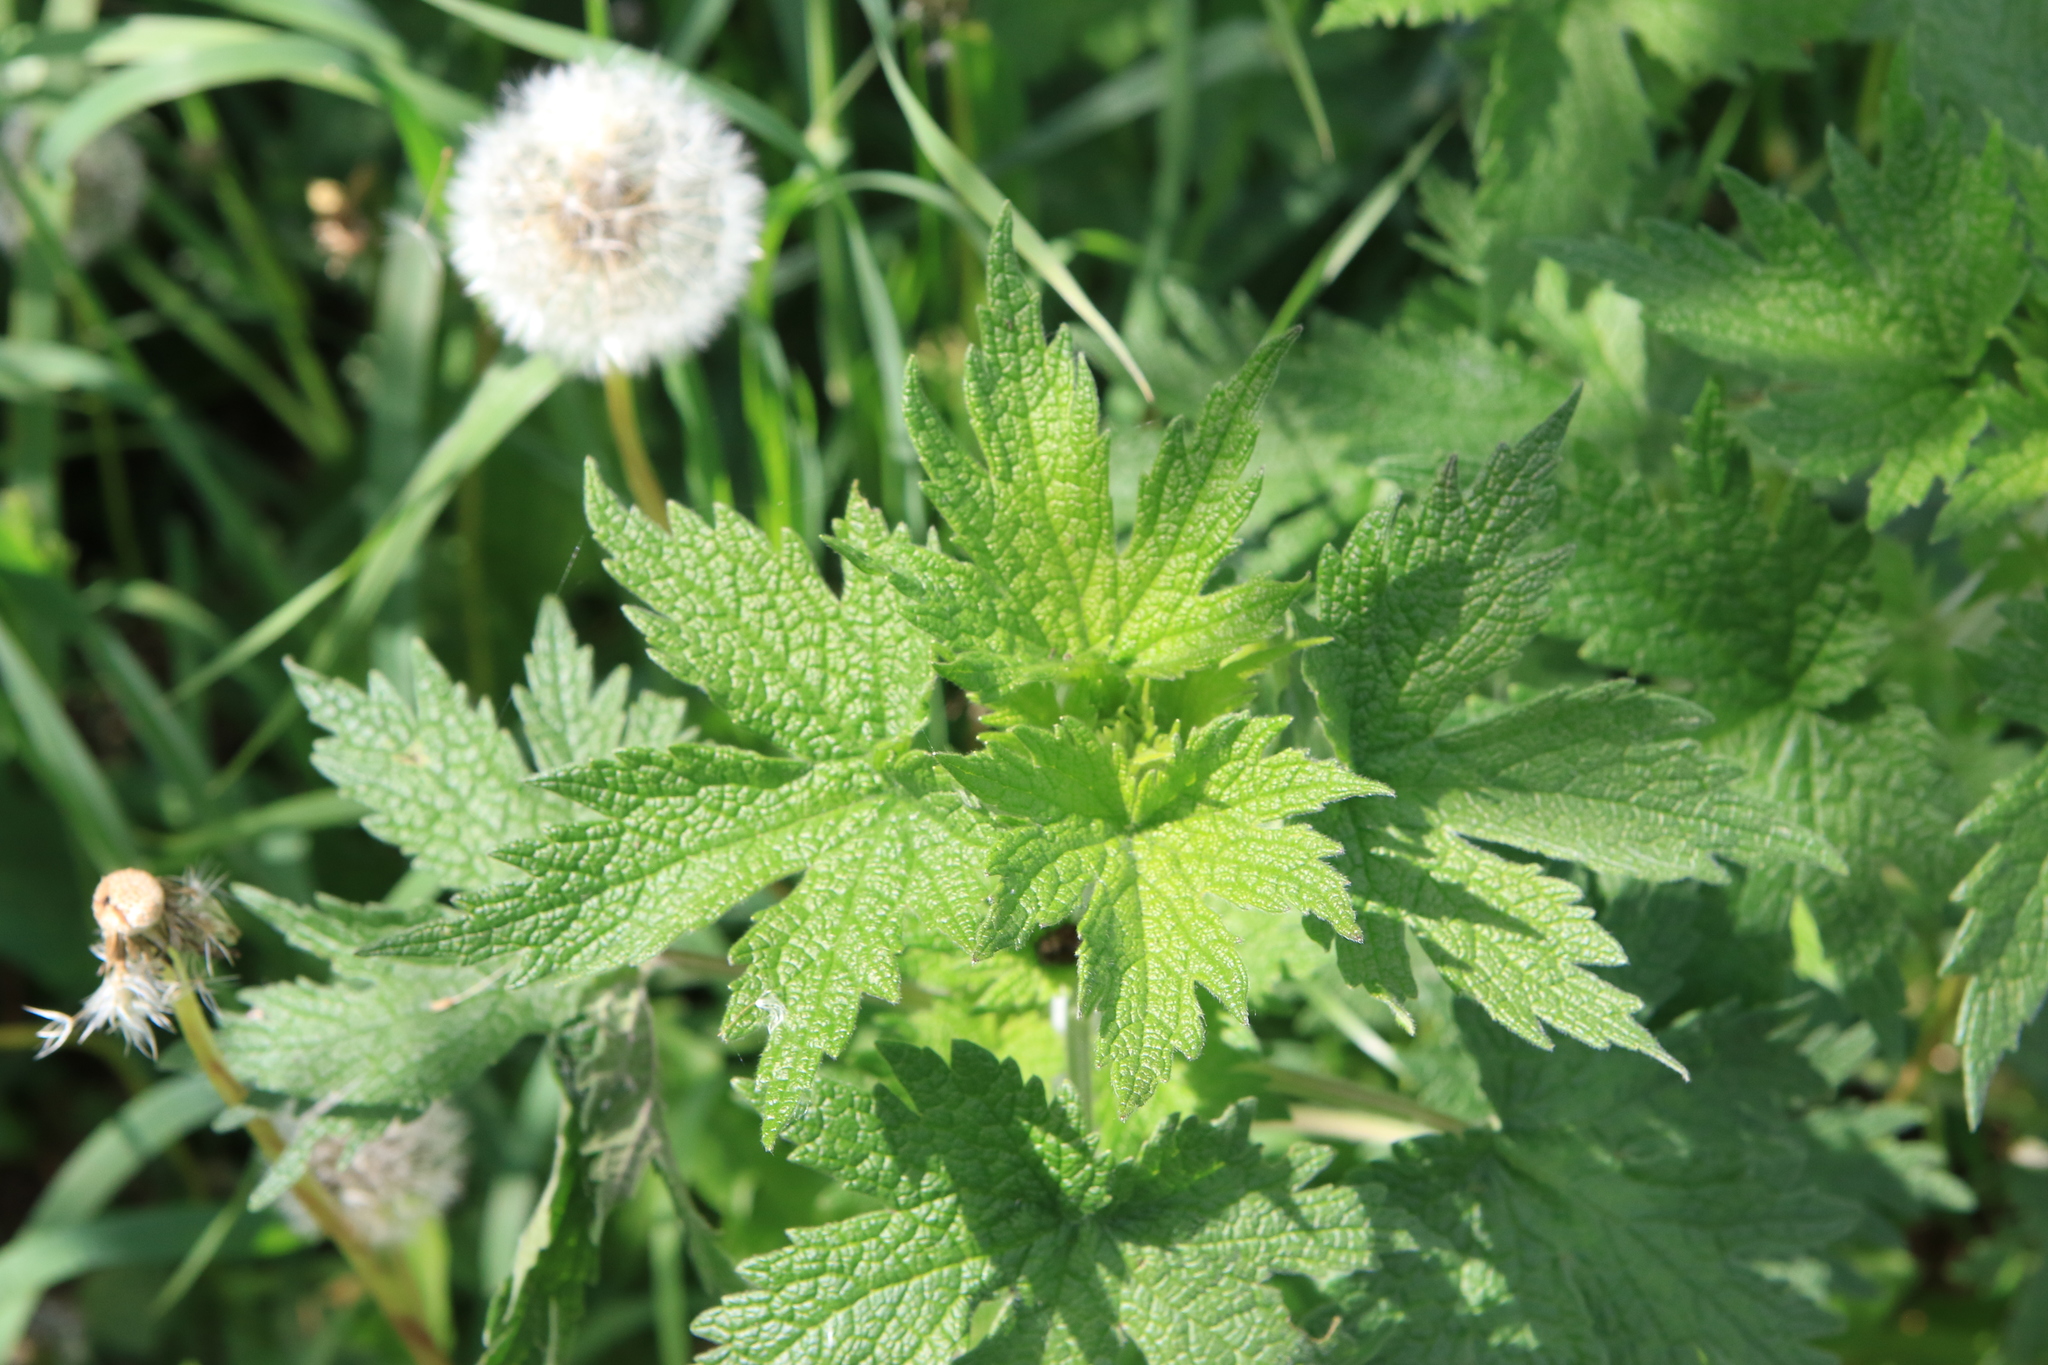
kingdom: Plantae
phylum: Tracheophyta
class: Magnoliopsida
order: Lamiales
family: Lamiaceae
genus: Leonurus
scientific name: Leonurus quinquelobatus
